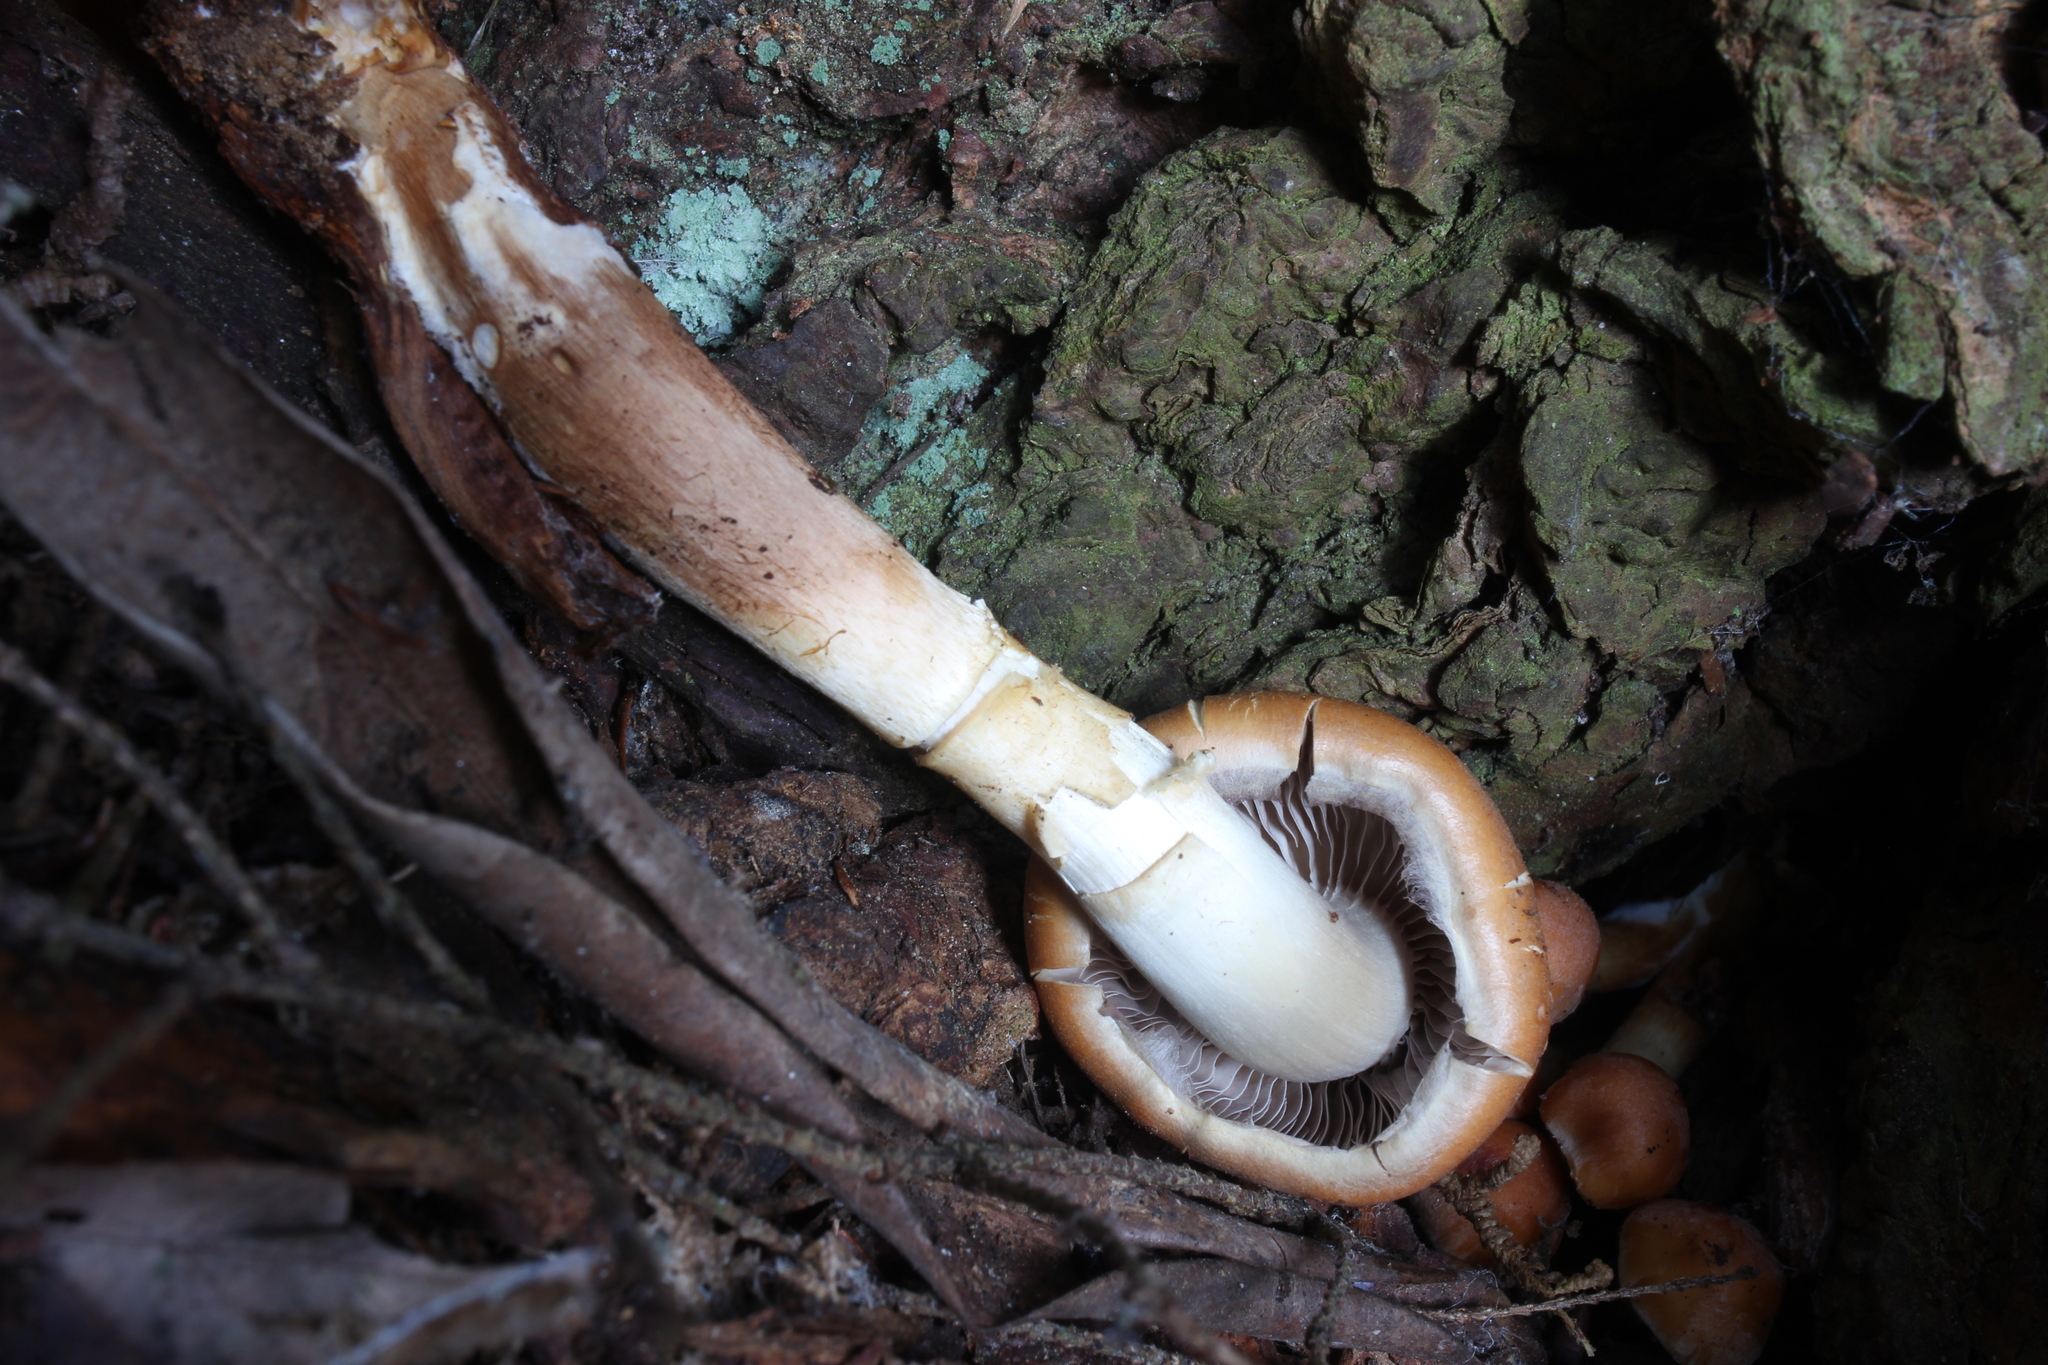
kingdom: Fungi
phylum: Basidiomycota
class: Agaricomycetes
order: Agaricales
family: Strophariaceae
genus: Hypholoma
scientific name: Hypholoma capnoides
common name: Conifer tuft
